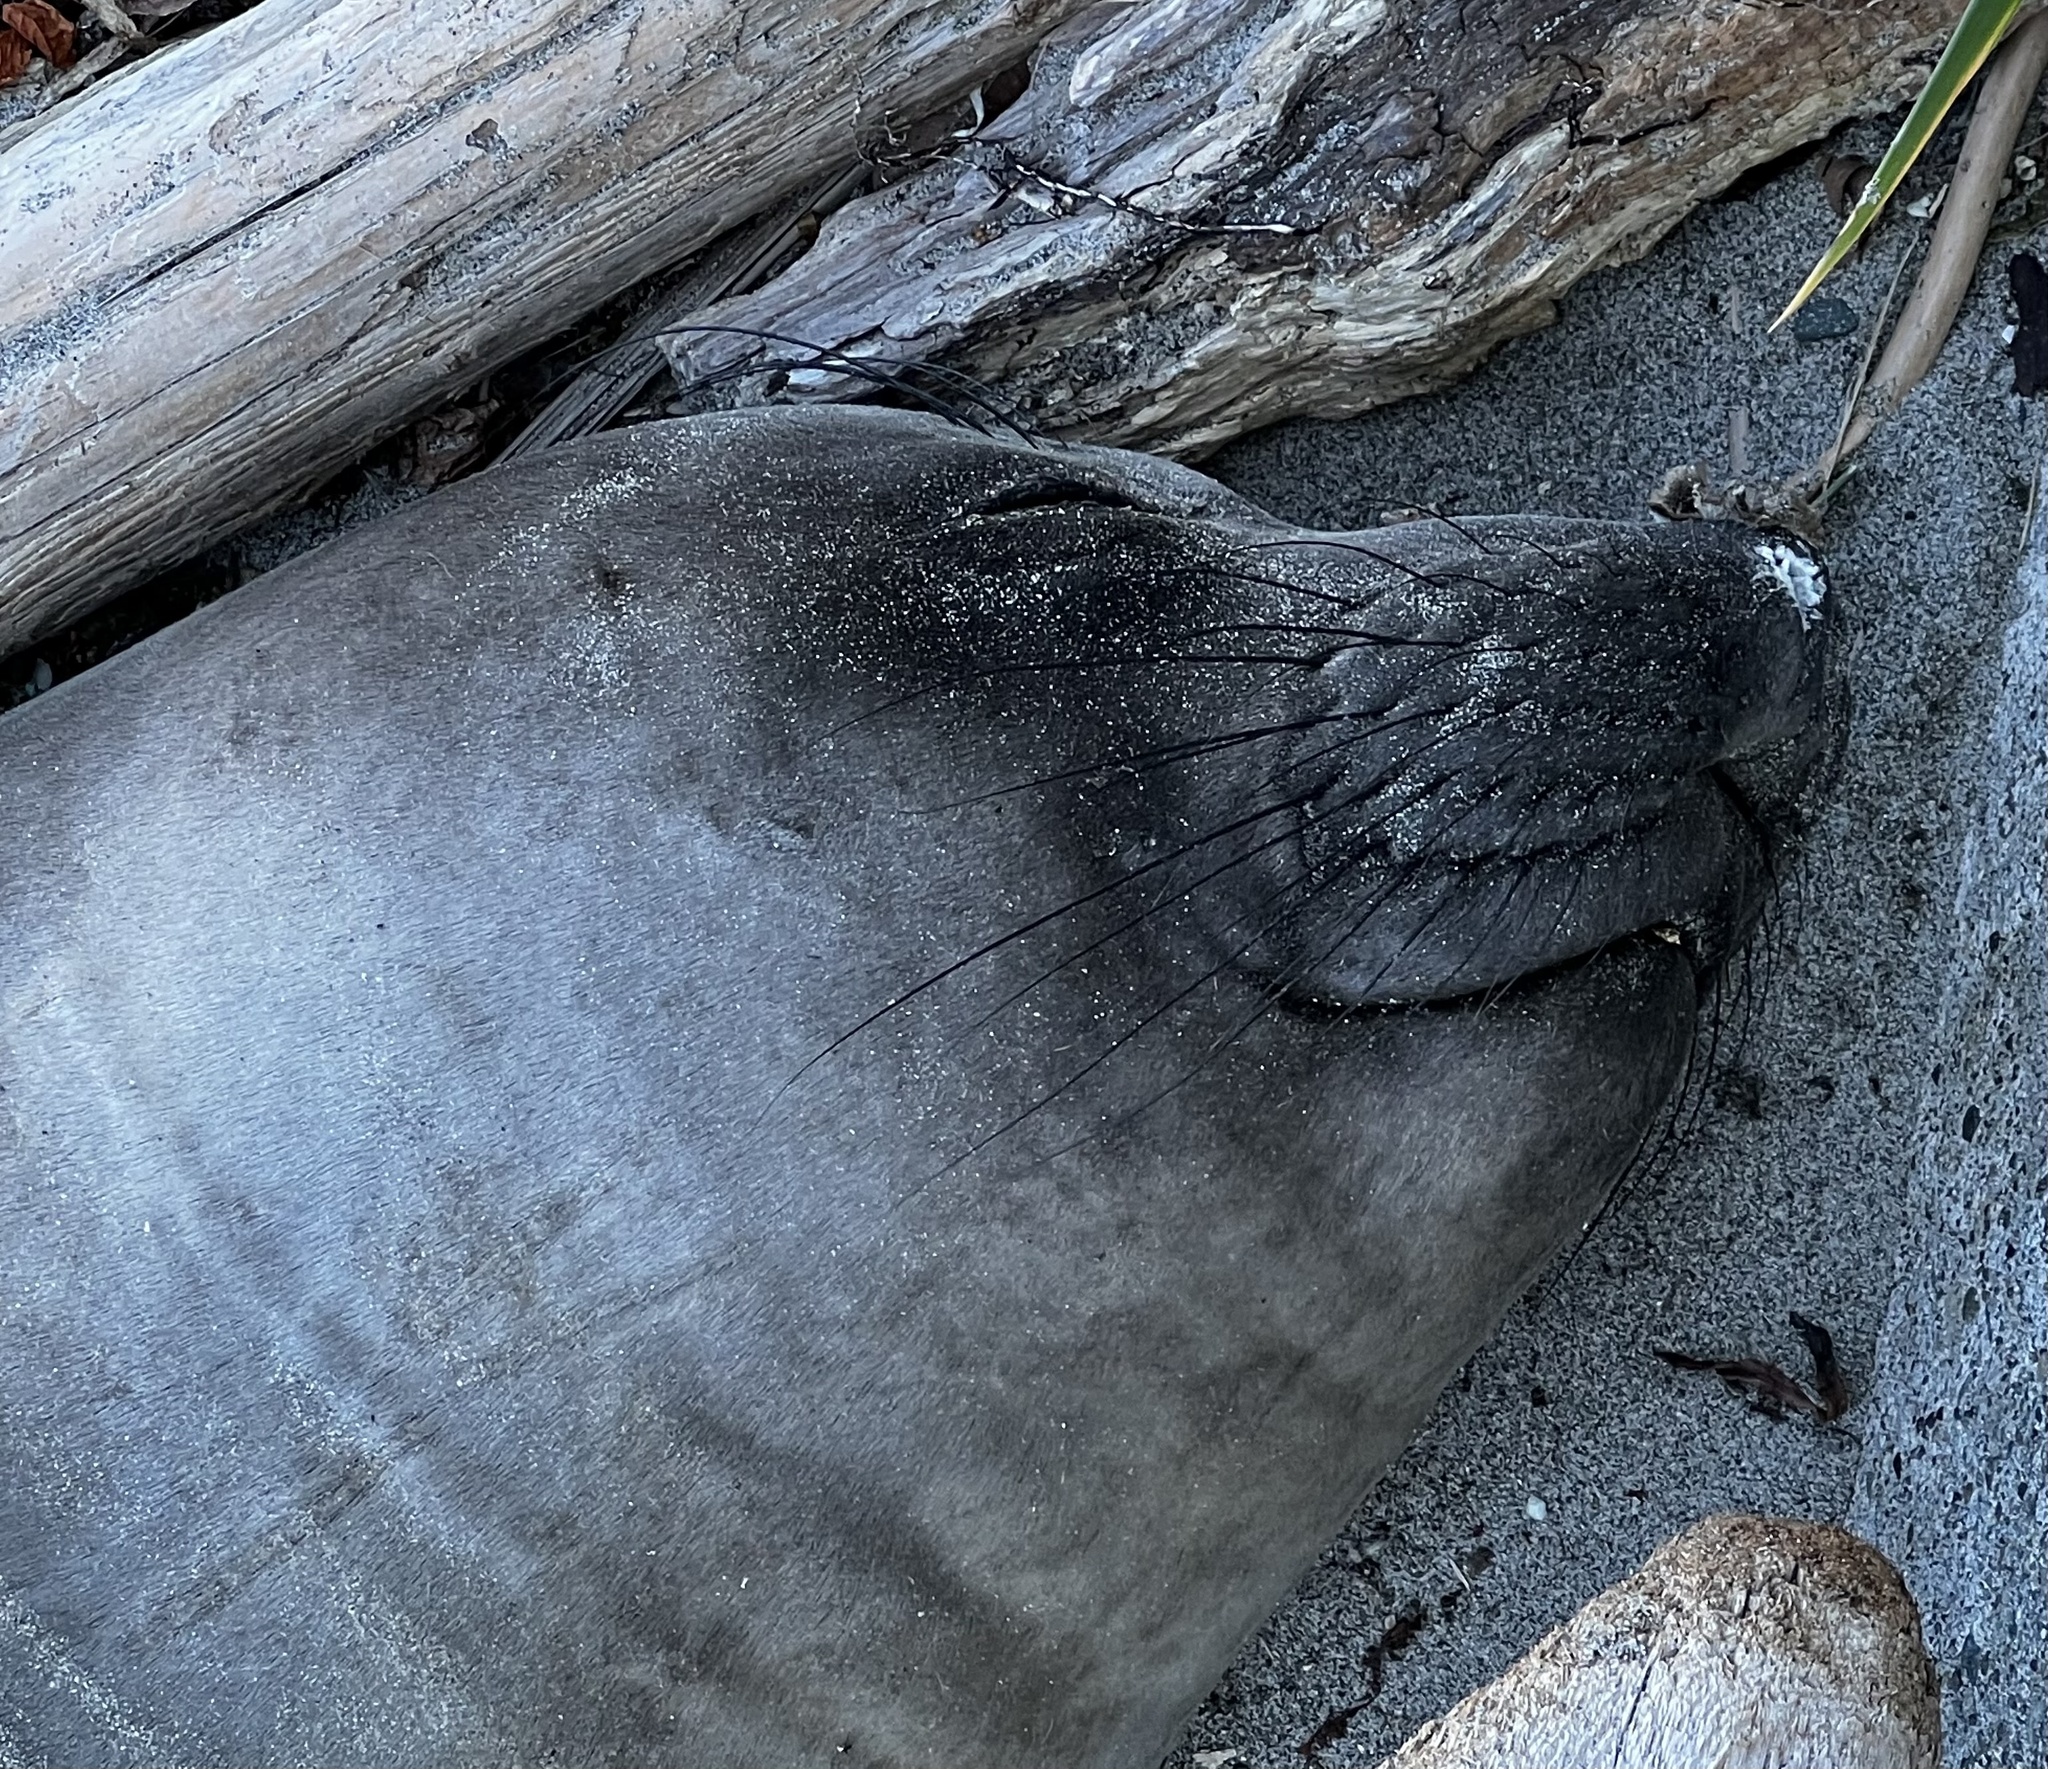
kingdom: Animalia
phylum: Chordata
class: Mammalia
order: Carnivora
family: Phocidae
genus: Mirounga
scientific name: Mirounga angustirostris
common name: Northern elephant seal
